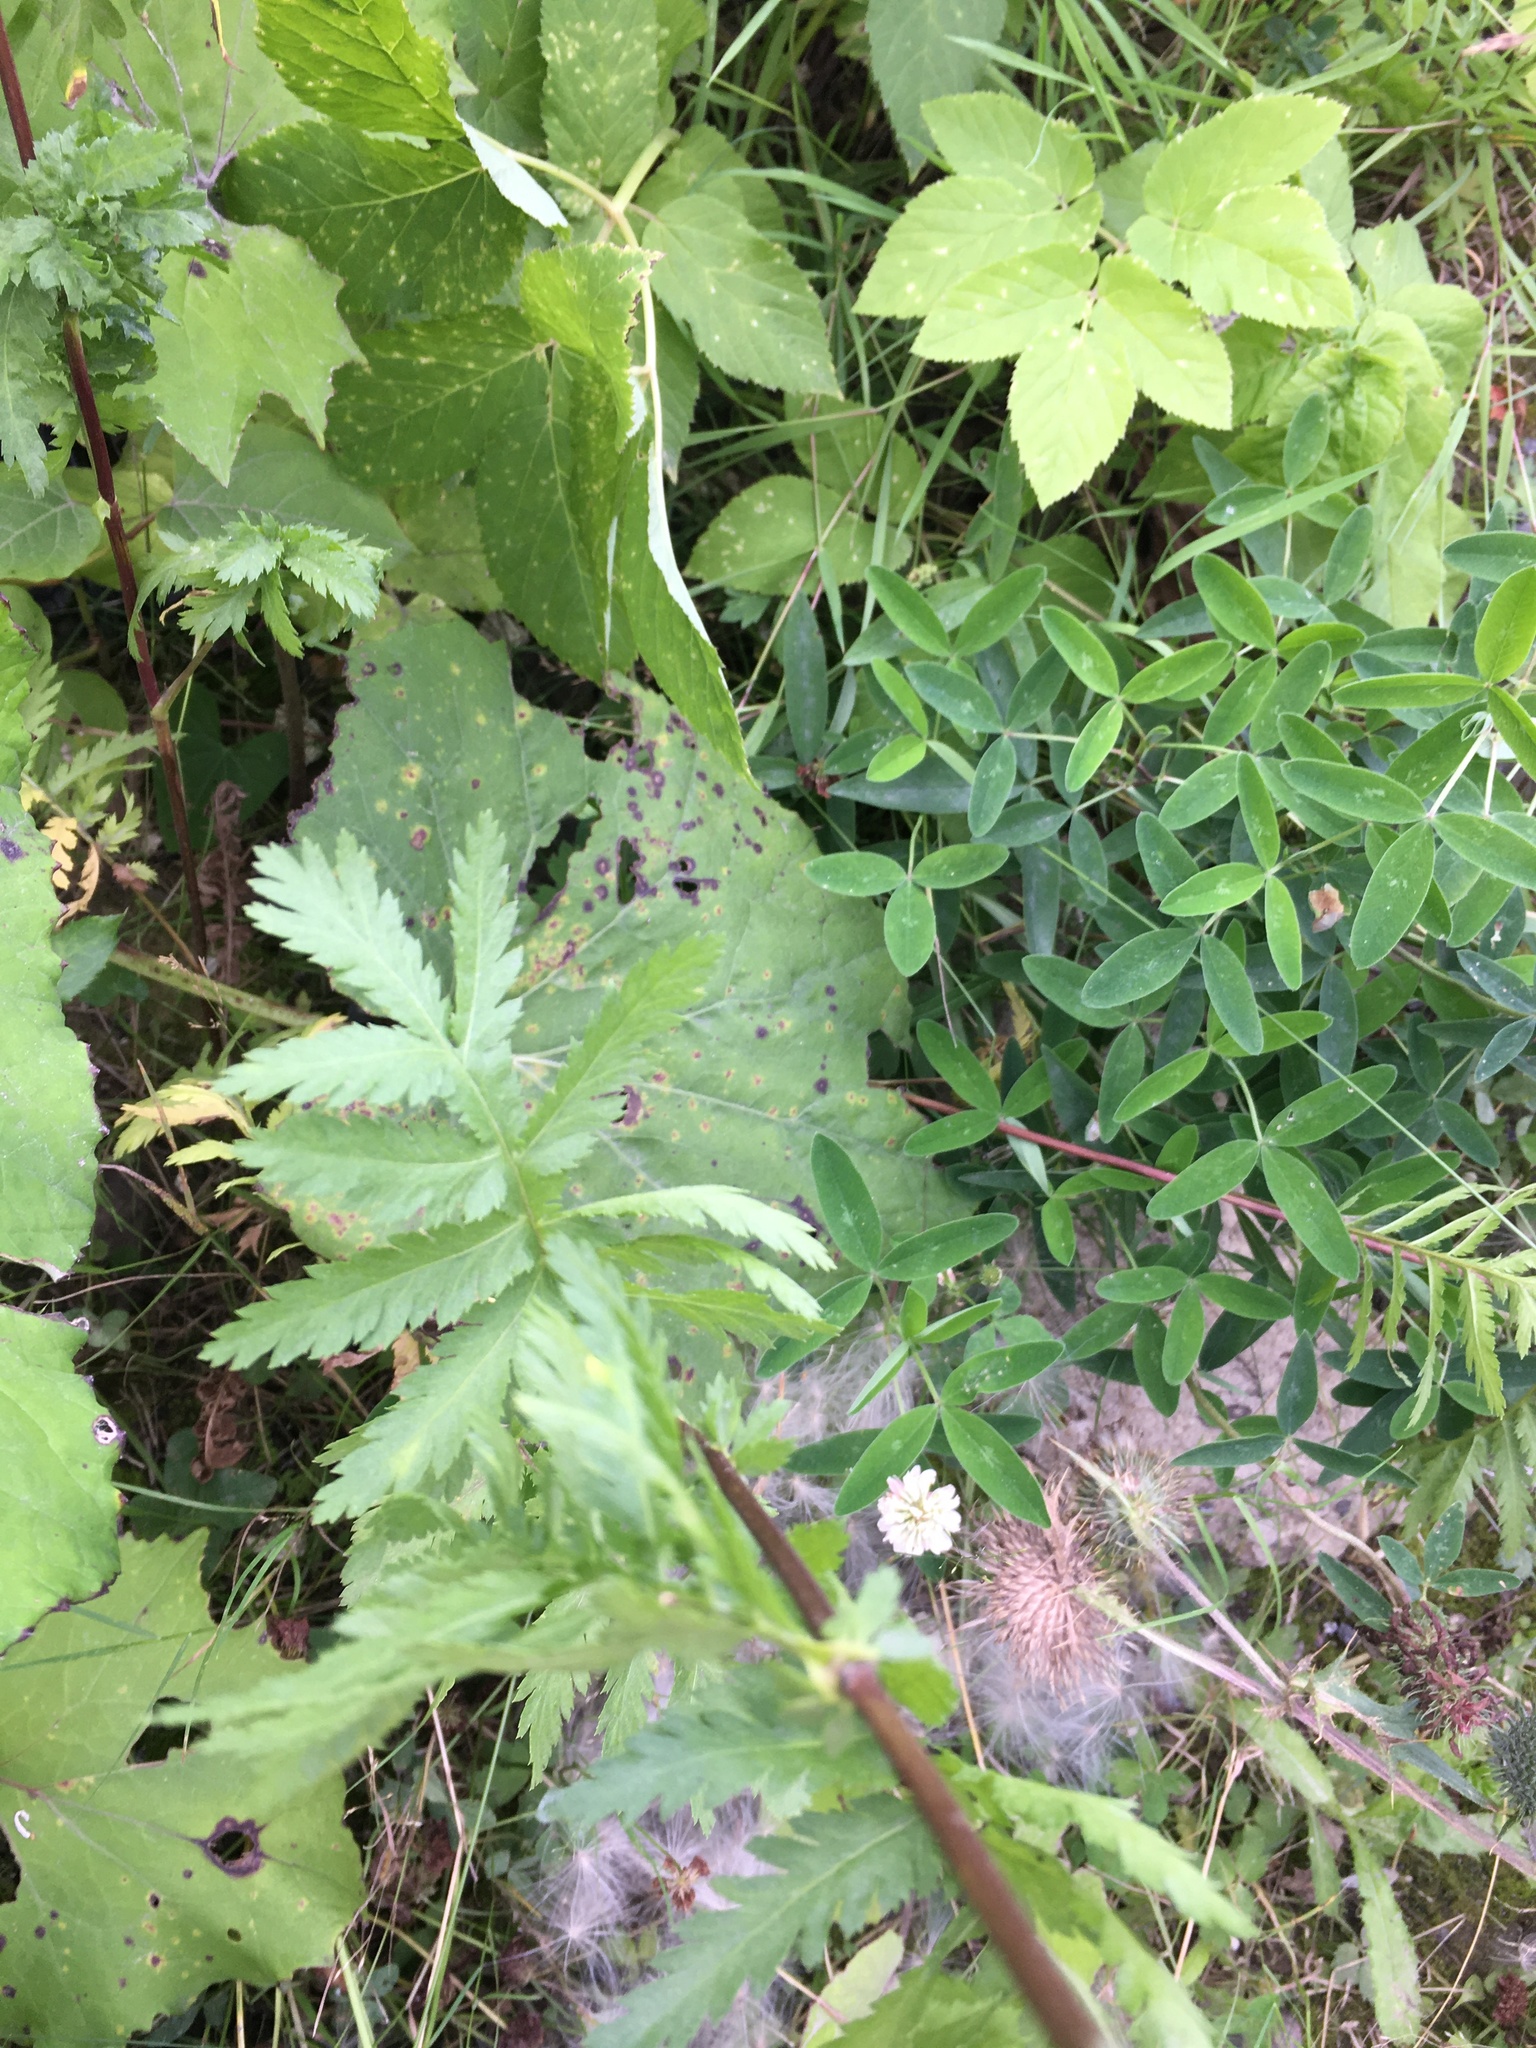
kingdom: Plantae
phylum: Tracheophyta
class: Magnoliopsida
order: Asterales
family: Asteraceae
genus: Tanacetum
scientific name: Tanacetum vulgare
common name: Common tansy
